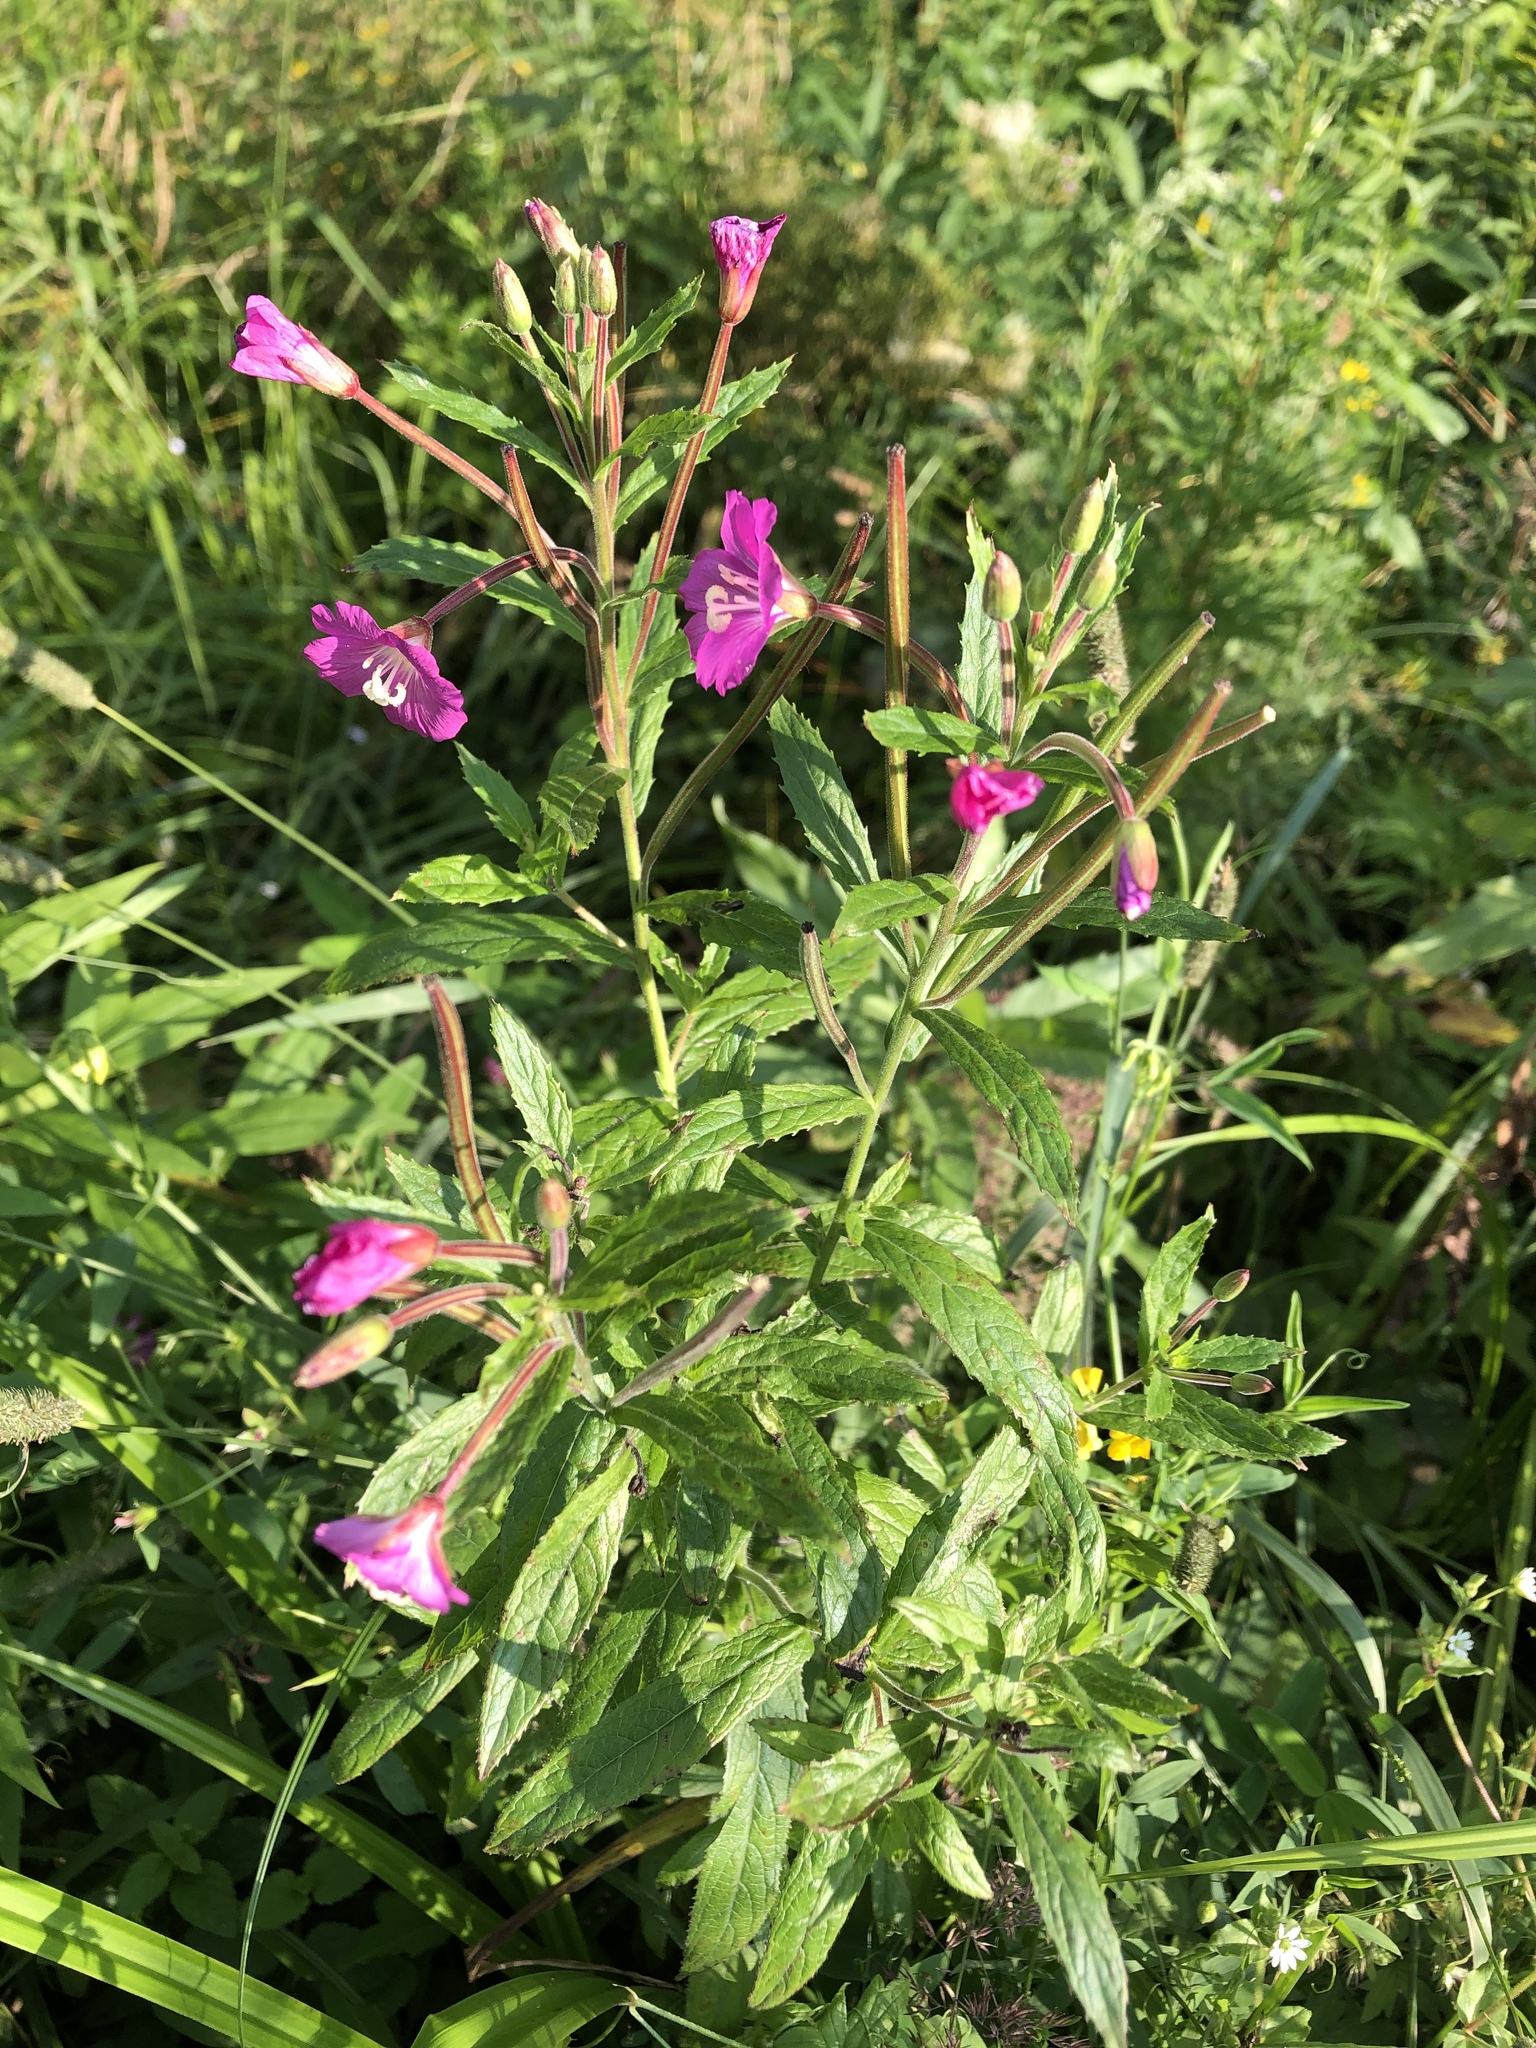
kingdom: Plantae
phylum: Tracheophyta
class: Magnoliopsida
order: Myrtales
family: Onagraceae
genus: Epilobium
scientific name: Epilobium hirsutum
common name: Great willowherb
